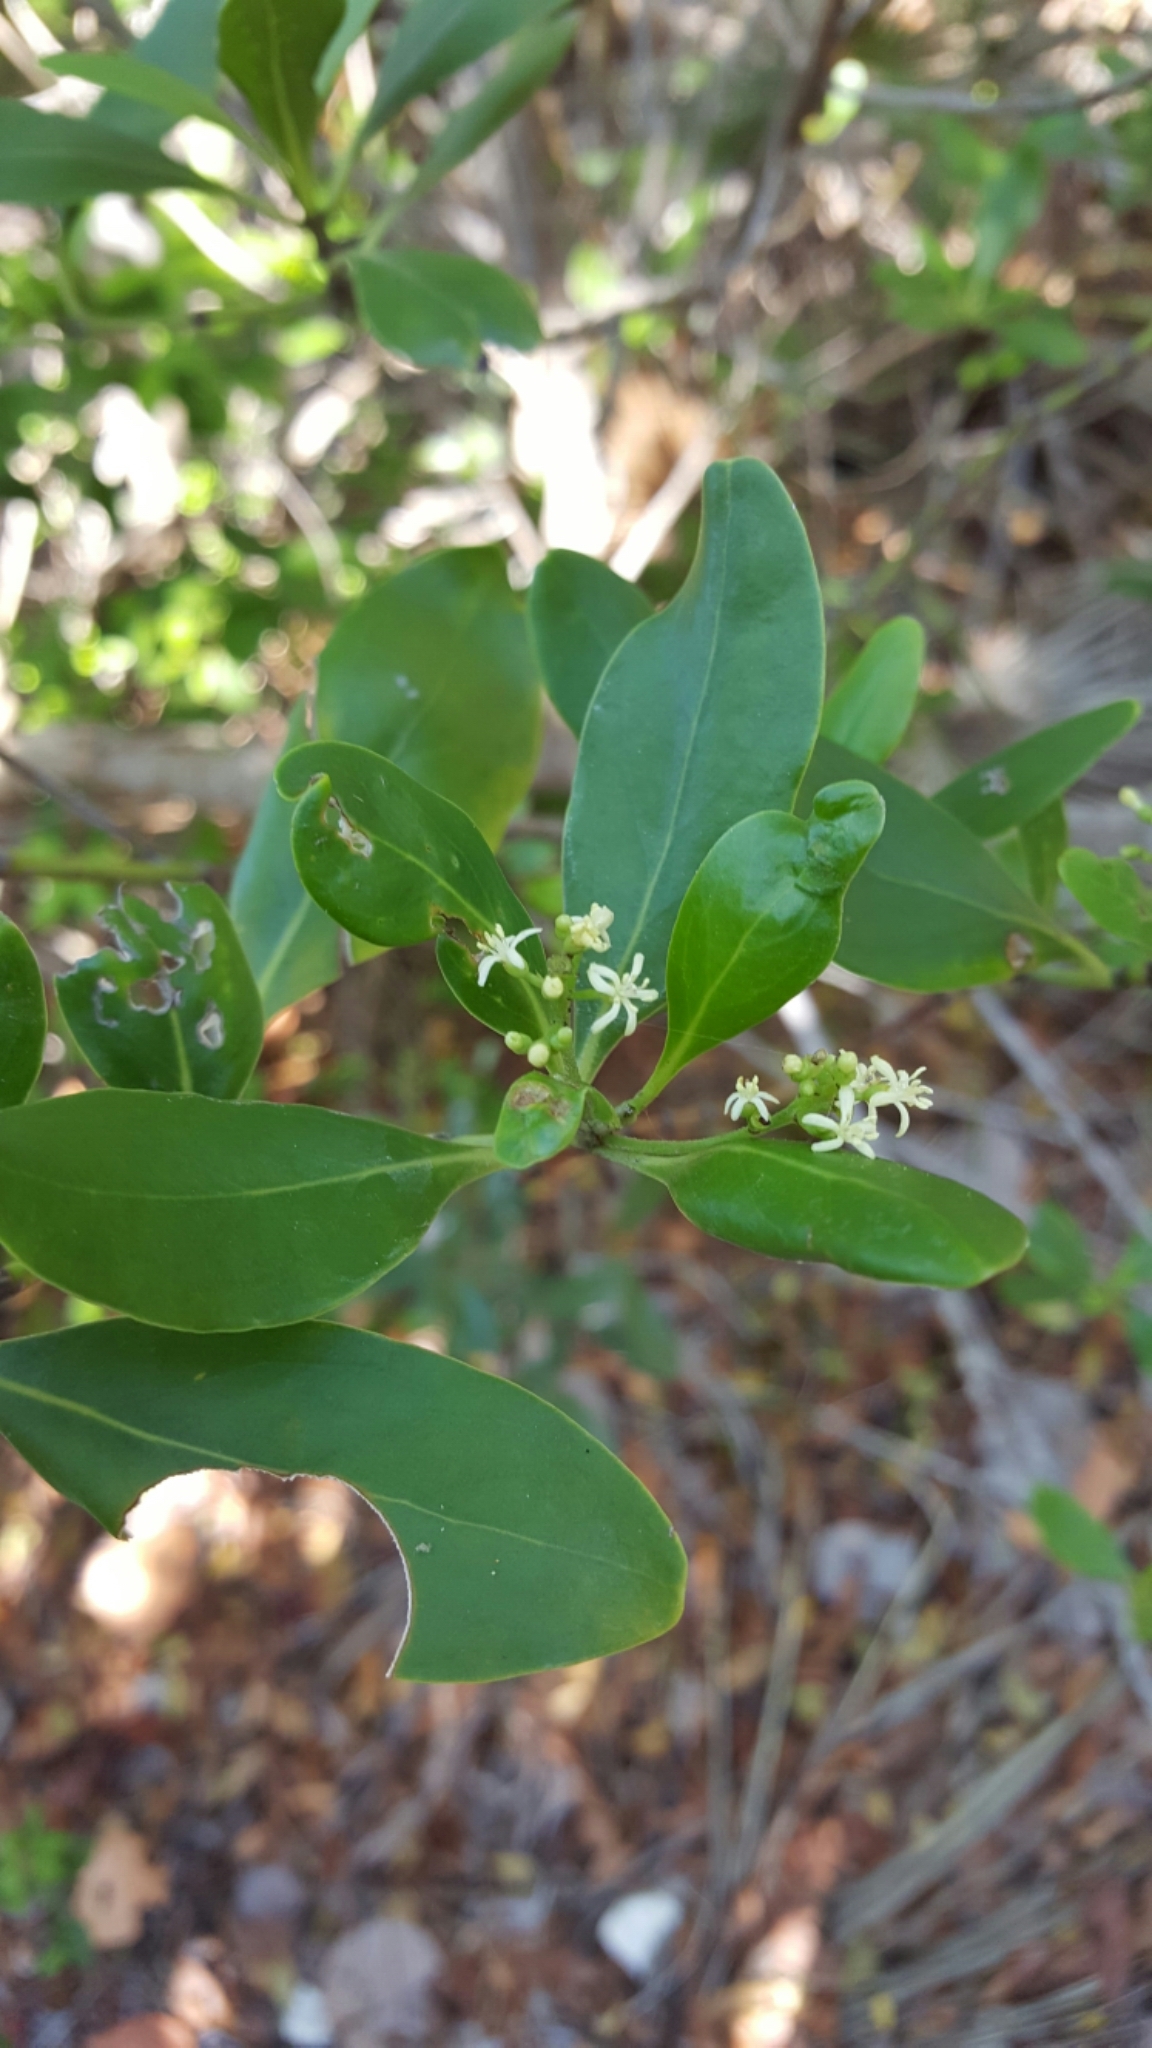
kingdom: Plantae
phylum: Tracheophyta
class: Magnoliopsida
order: Gentianales
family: Rubiaceae
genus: Erithalis
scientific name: Erithalis fruticosa
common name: Candlewood
